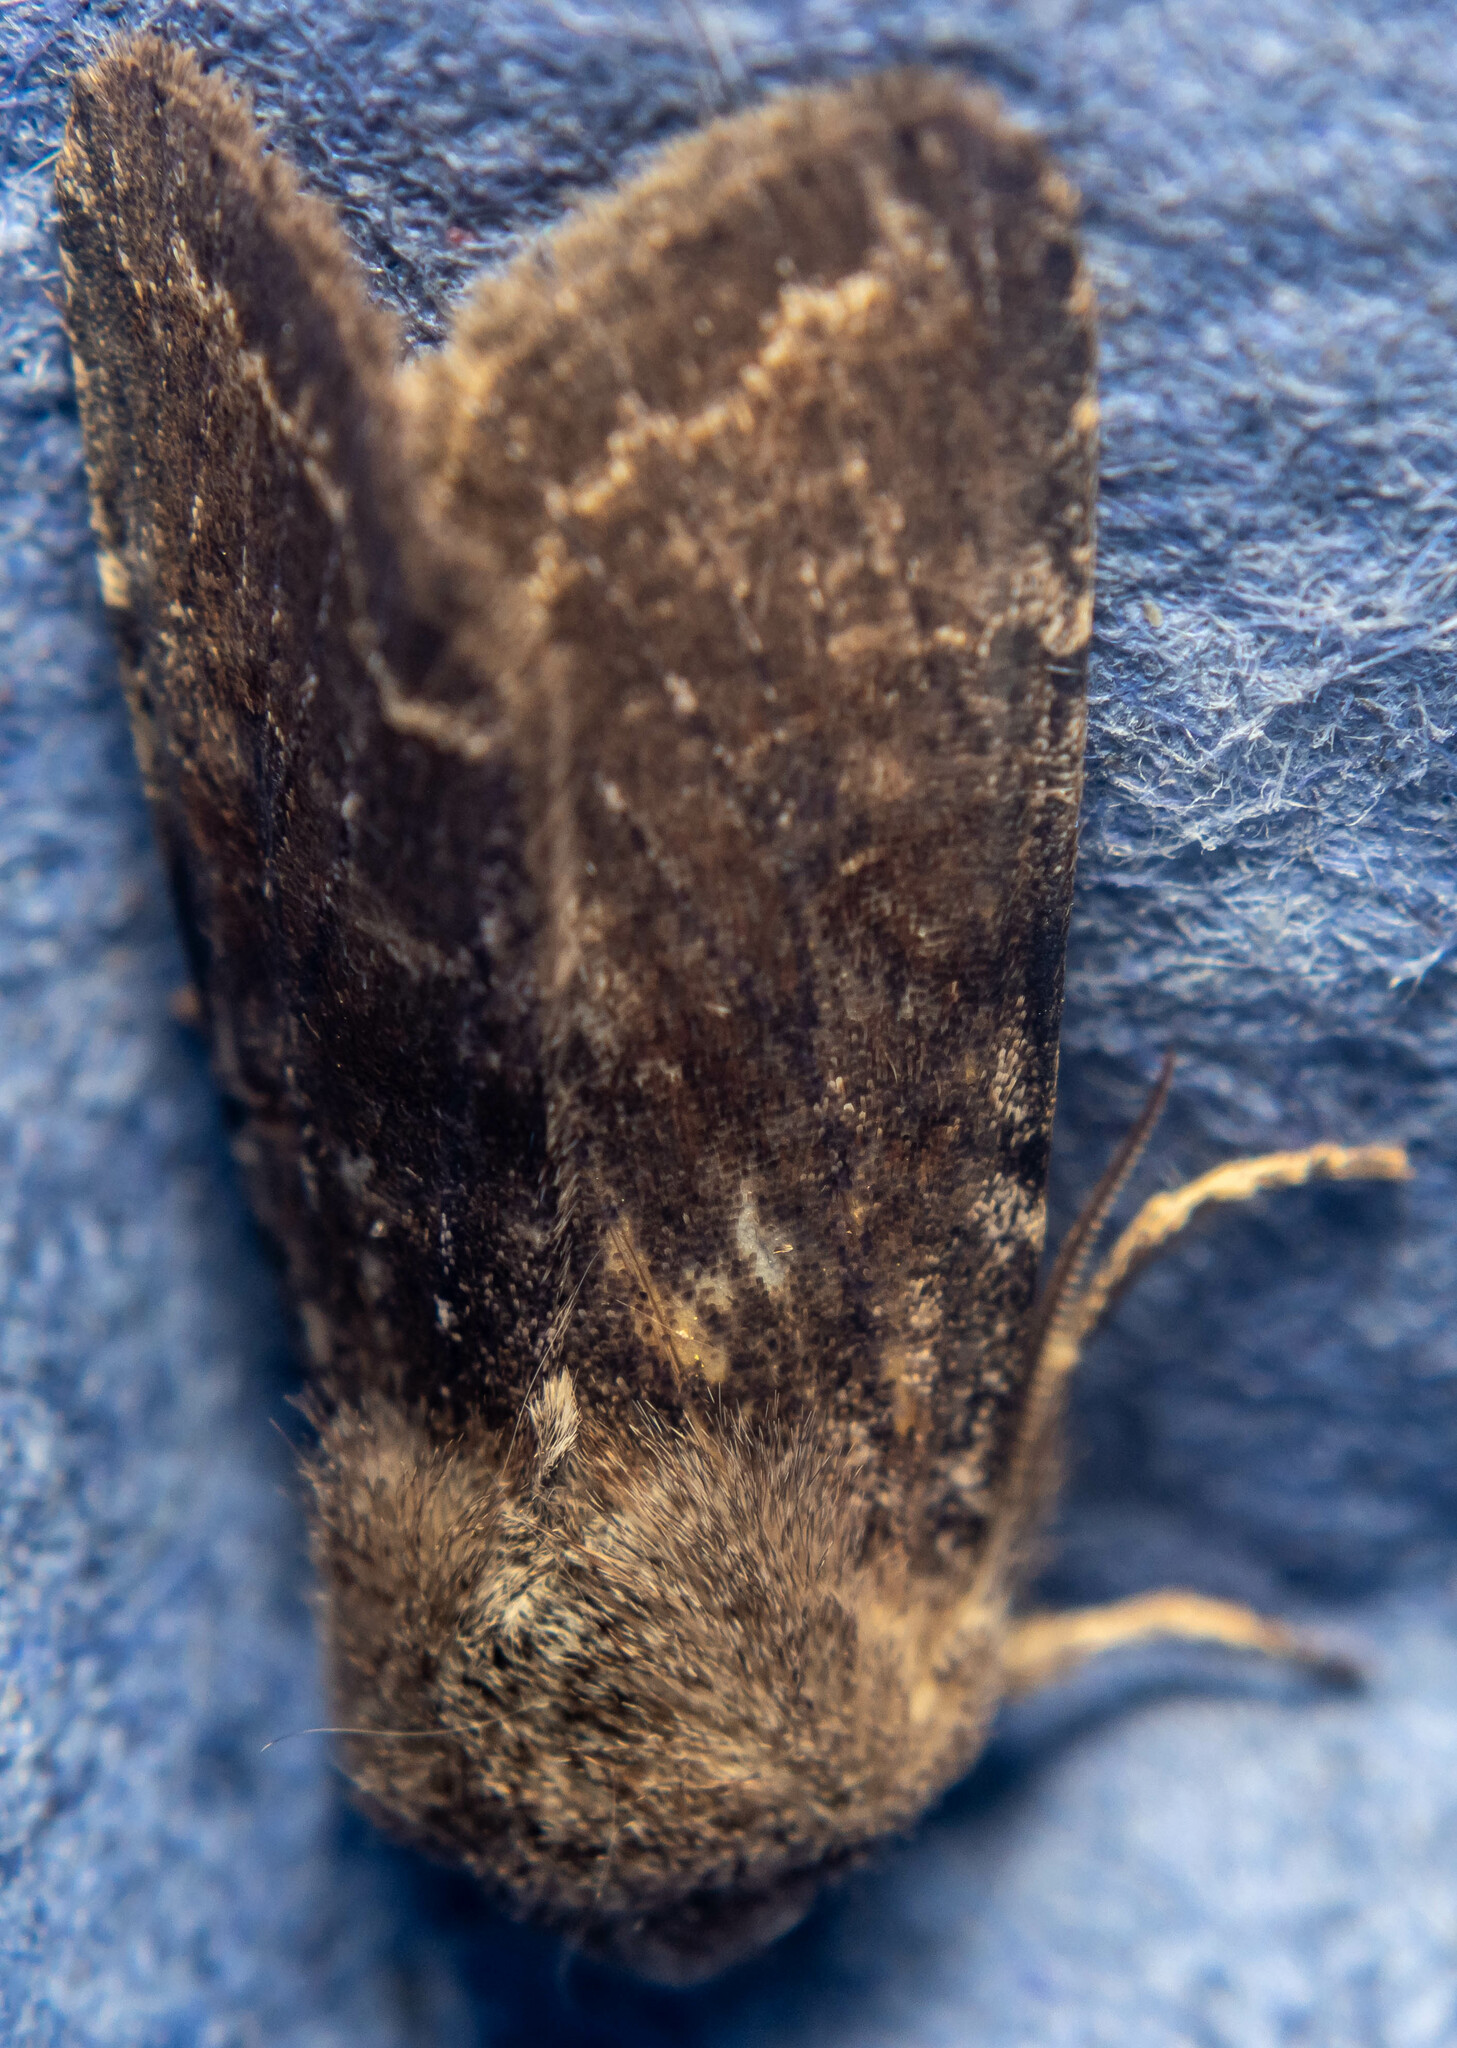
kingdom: Animalia
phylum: Arthropoda
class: Insecta
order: Lepidoptera
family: Noctuidae
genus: Orthosia
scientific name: Orthosia incerta
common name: Clouded drab
